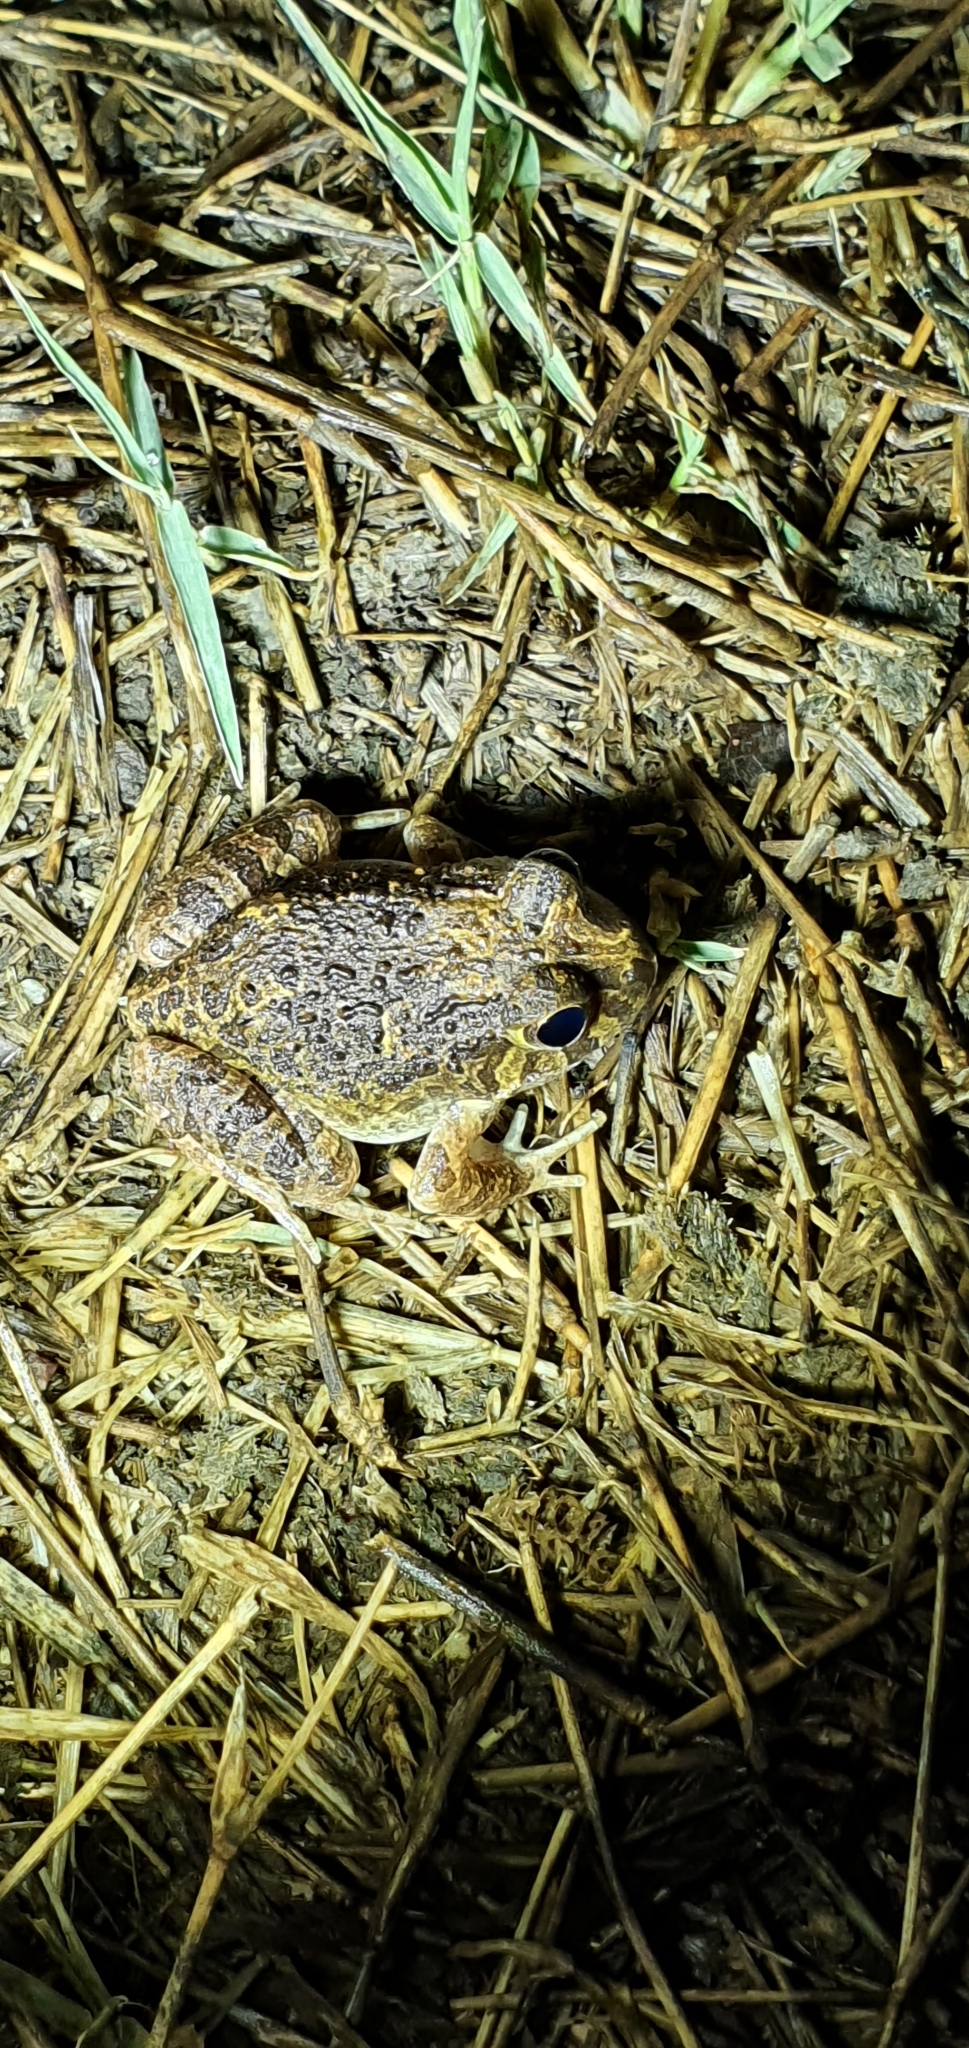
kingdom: Animalia
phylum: Chordata
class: Amphibia
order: Anura
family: Limnodynastidae
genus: Platyplectrum
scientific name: Platyplectrum ornatum
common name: Ornate burrowing frog
